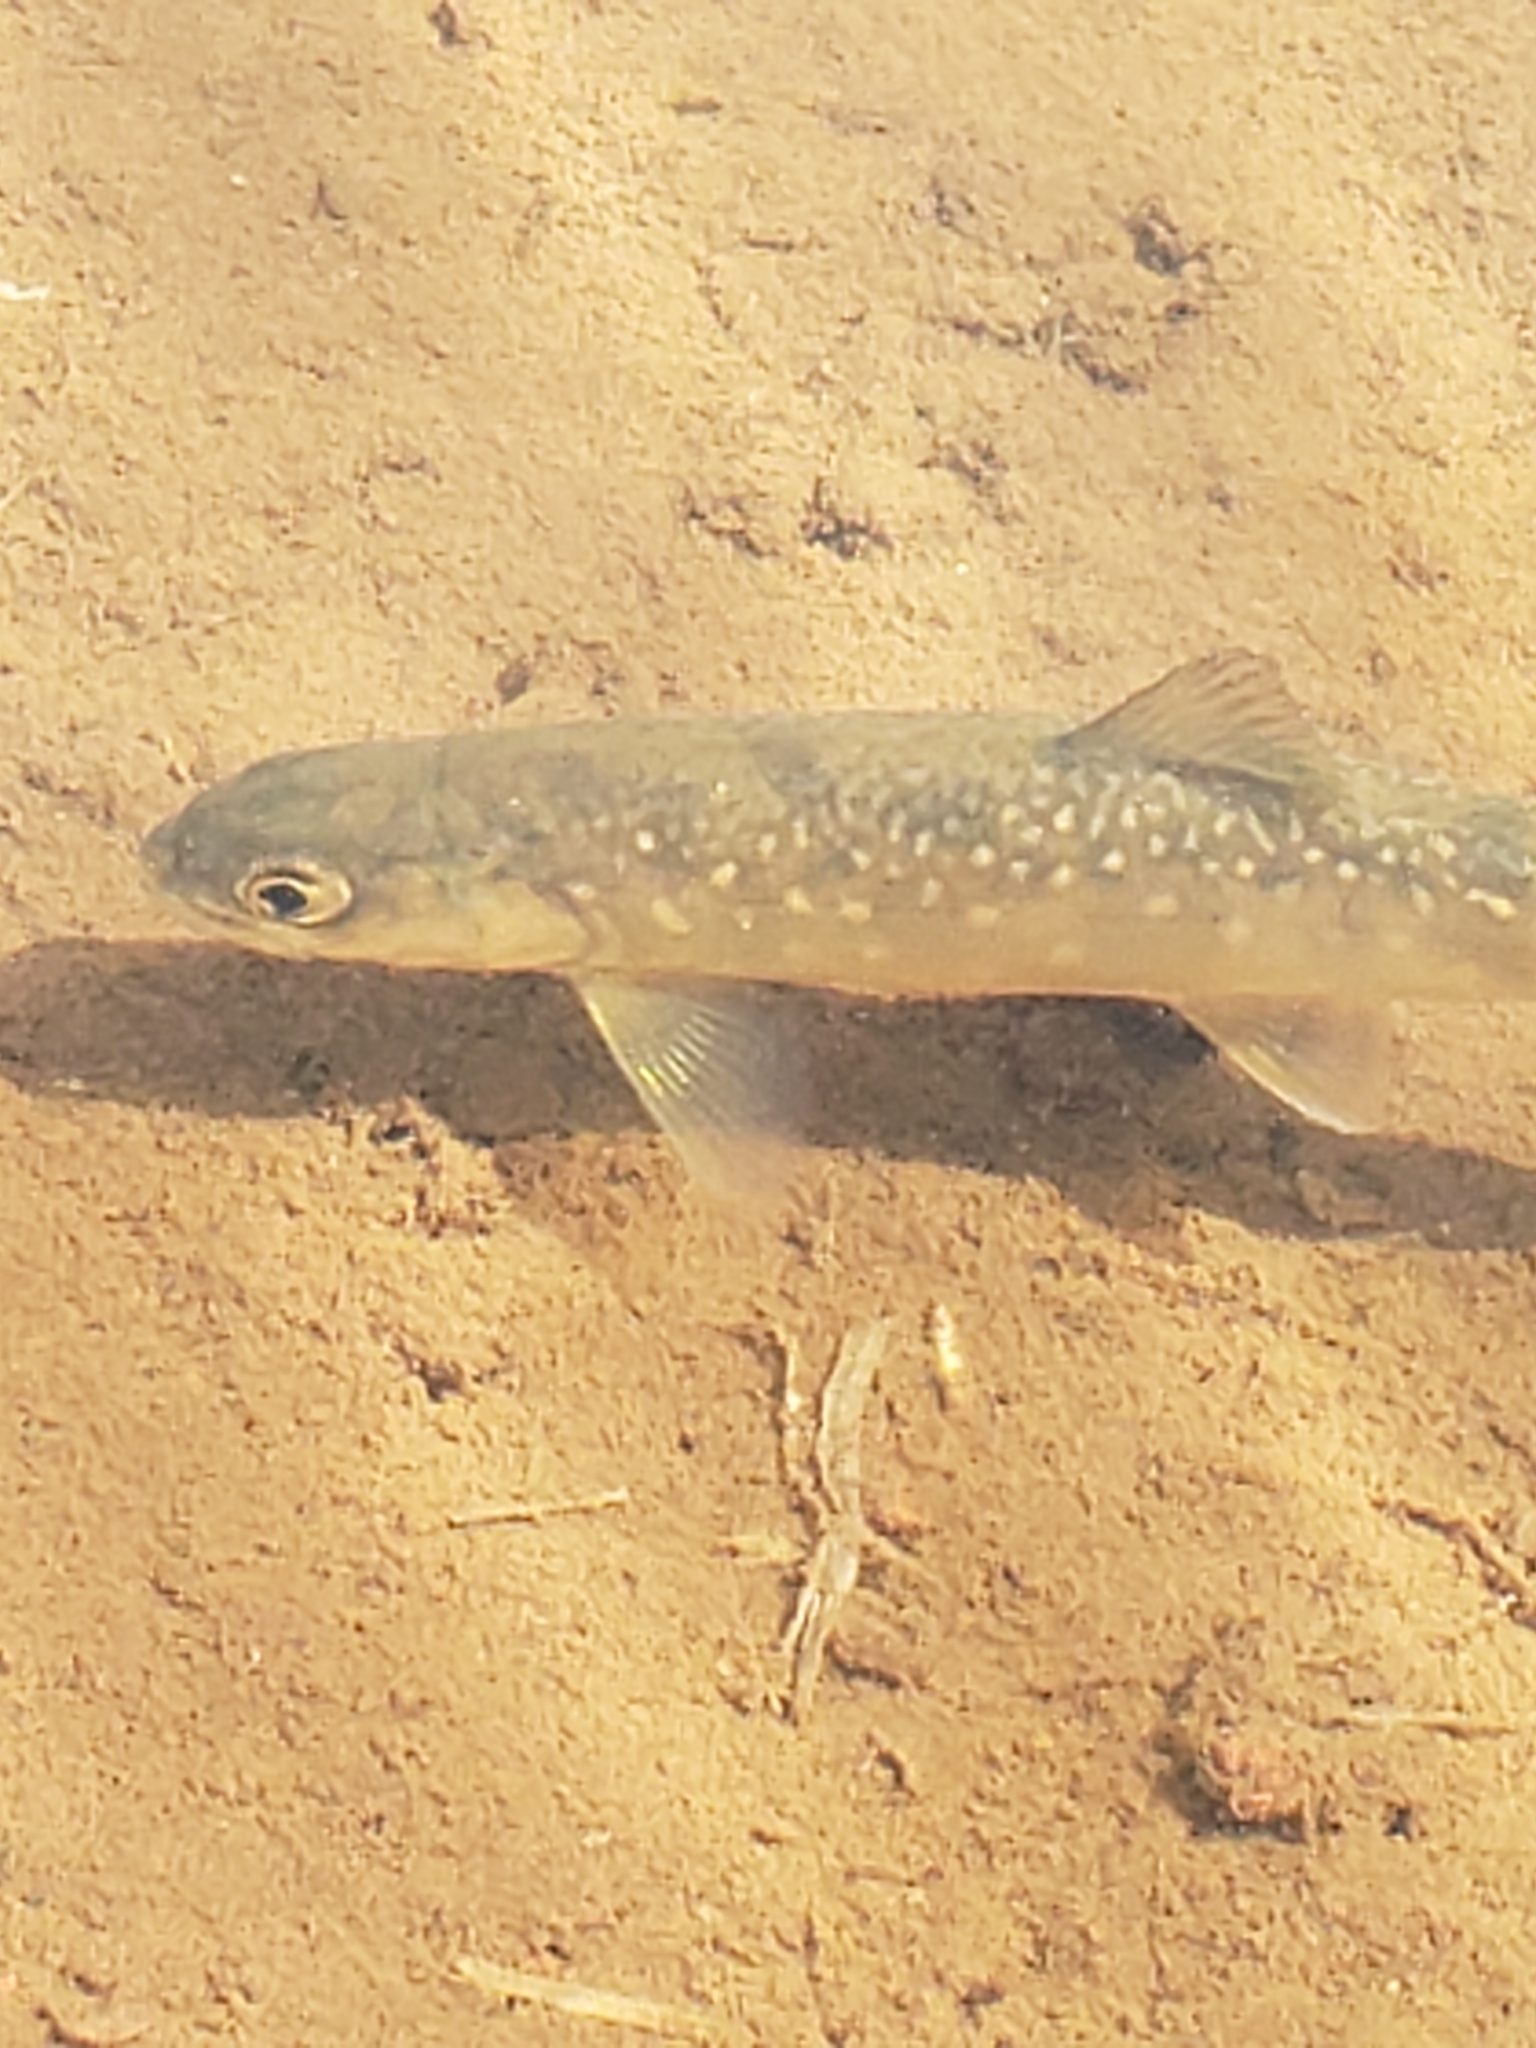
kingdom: Animalia
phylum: Chordata
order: Salmoniformes
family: Salmonidae
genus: Salvelinus
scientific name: Salvelinus alpinus
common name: Charr
